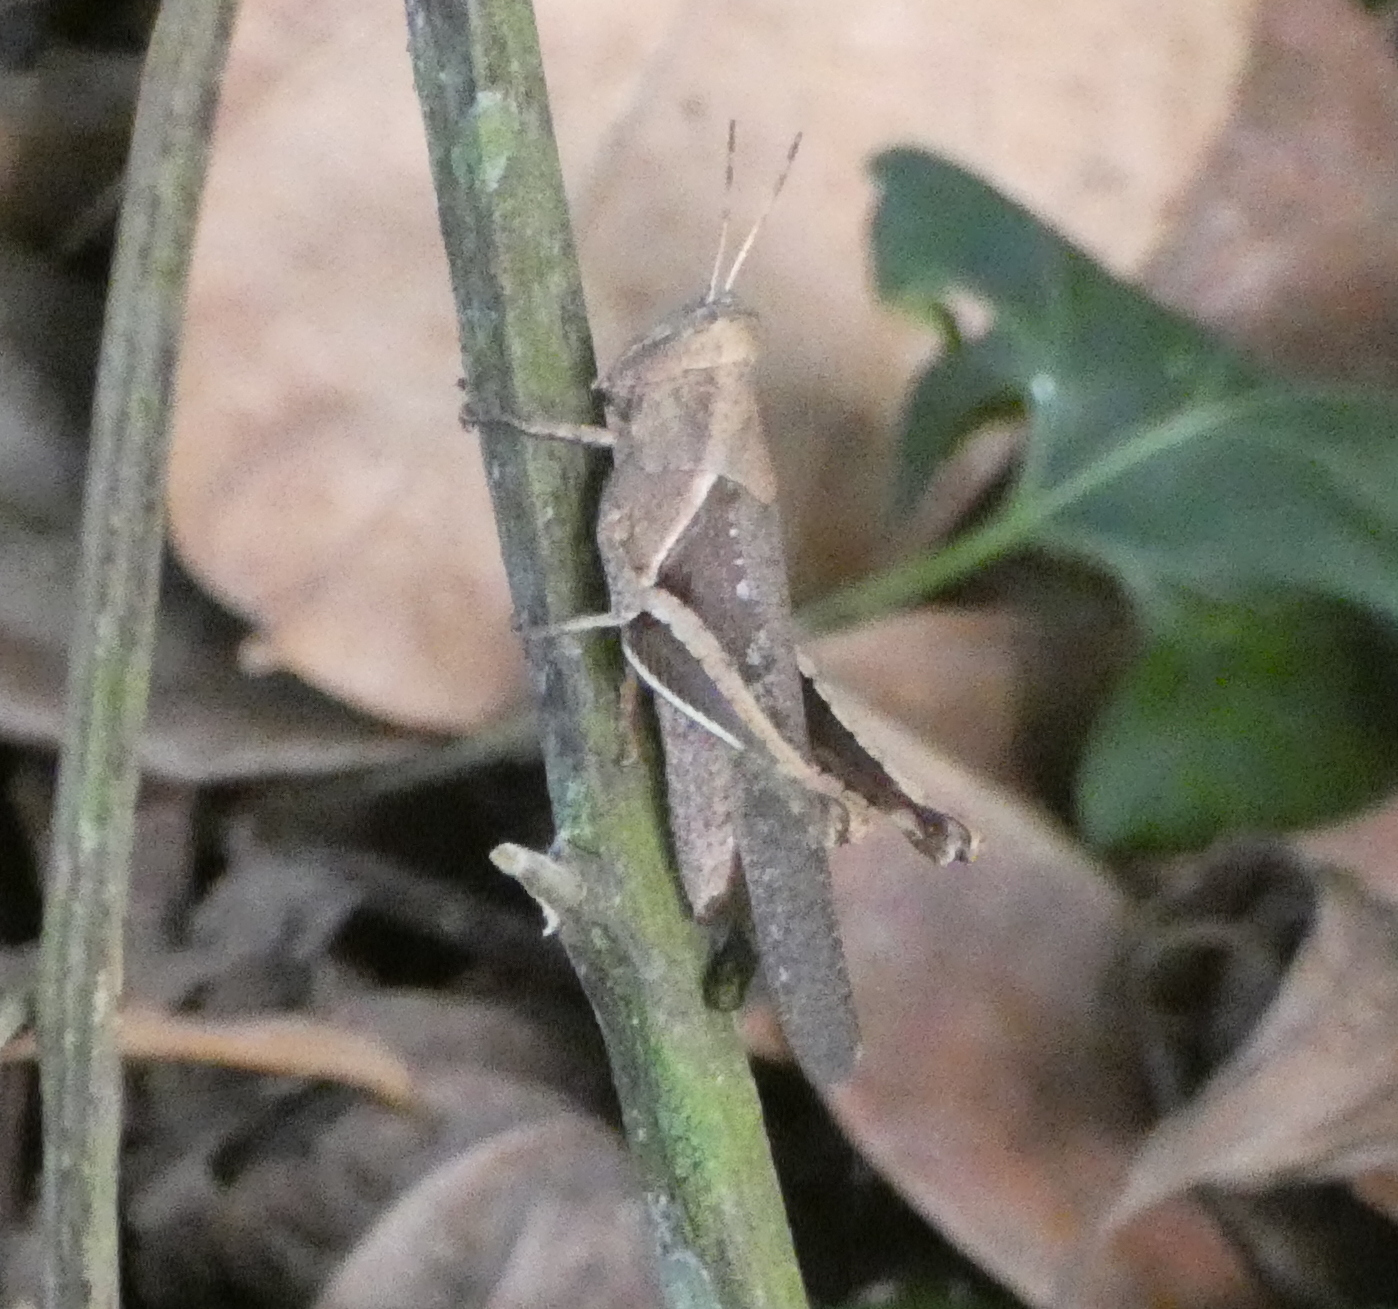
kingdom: Animalia
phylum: Arthropoda
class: Insecta
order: Orthoptera
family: Acrididae
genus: Abracris
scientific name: Abracris flavolineata
